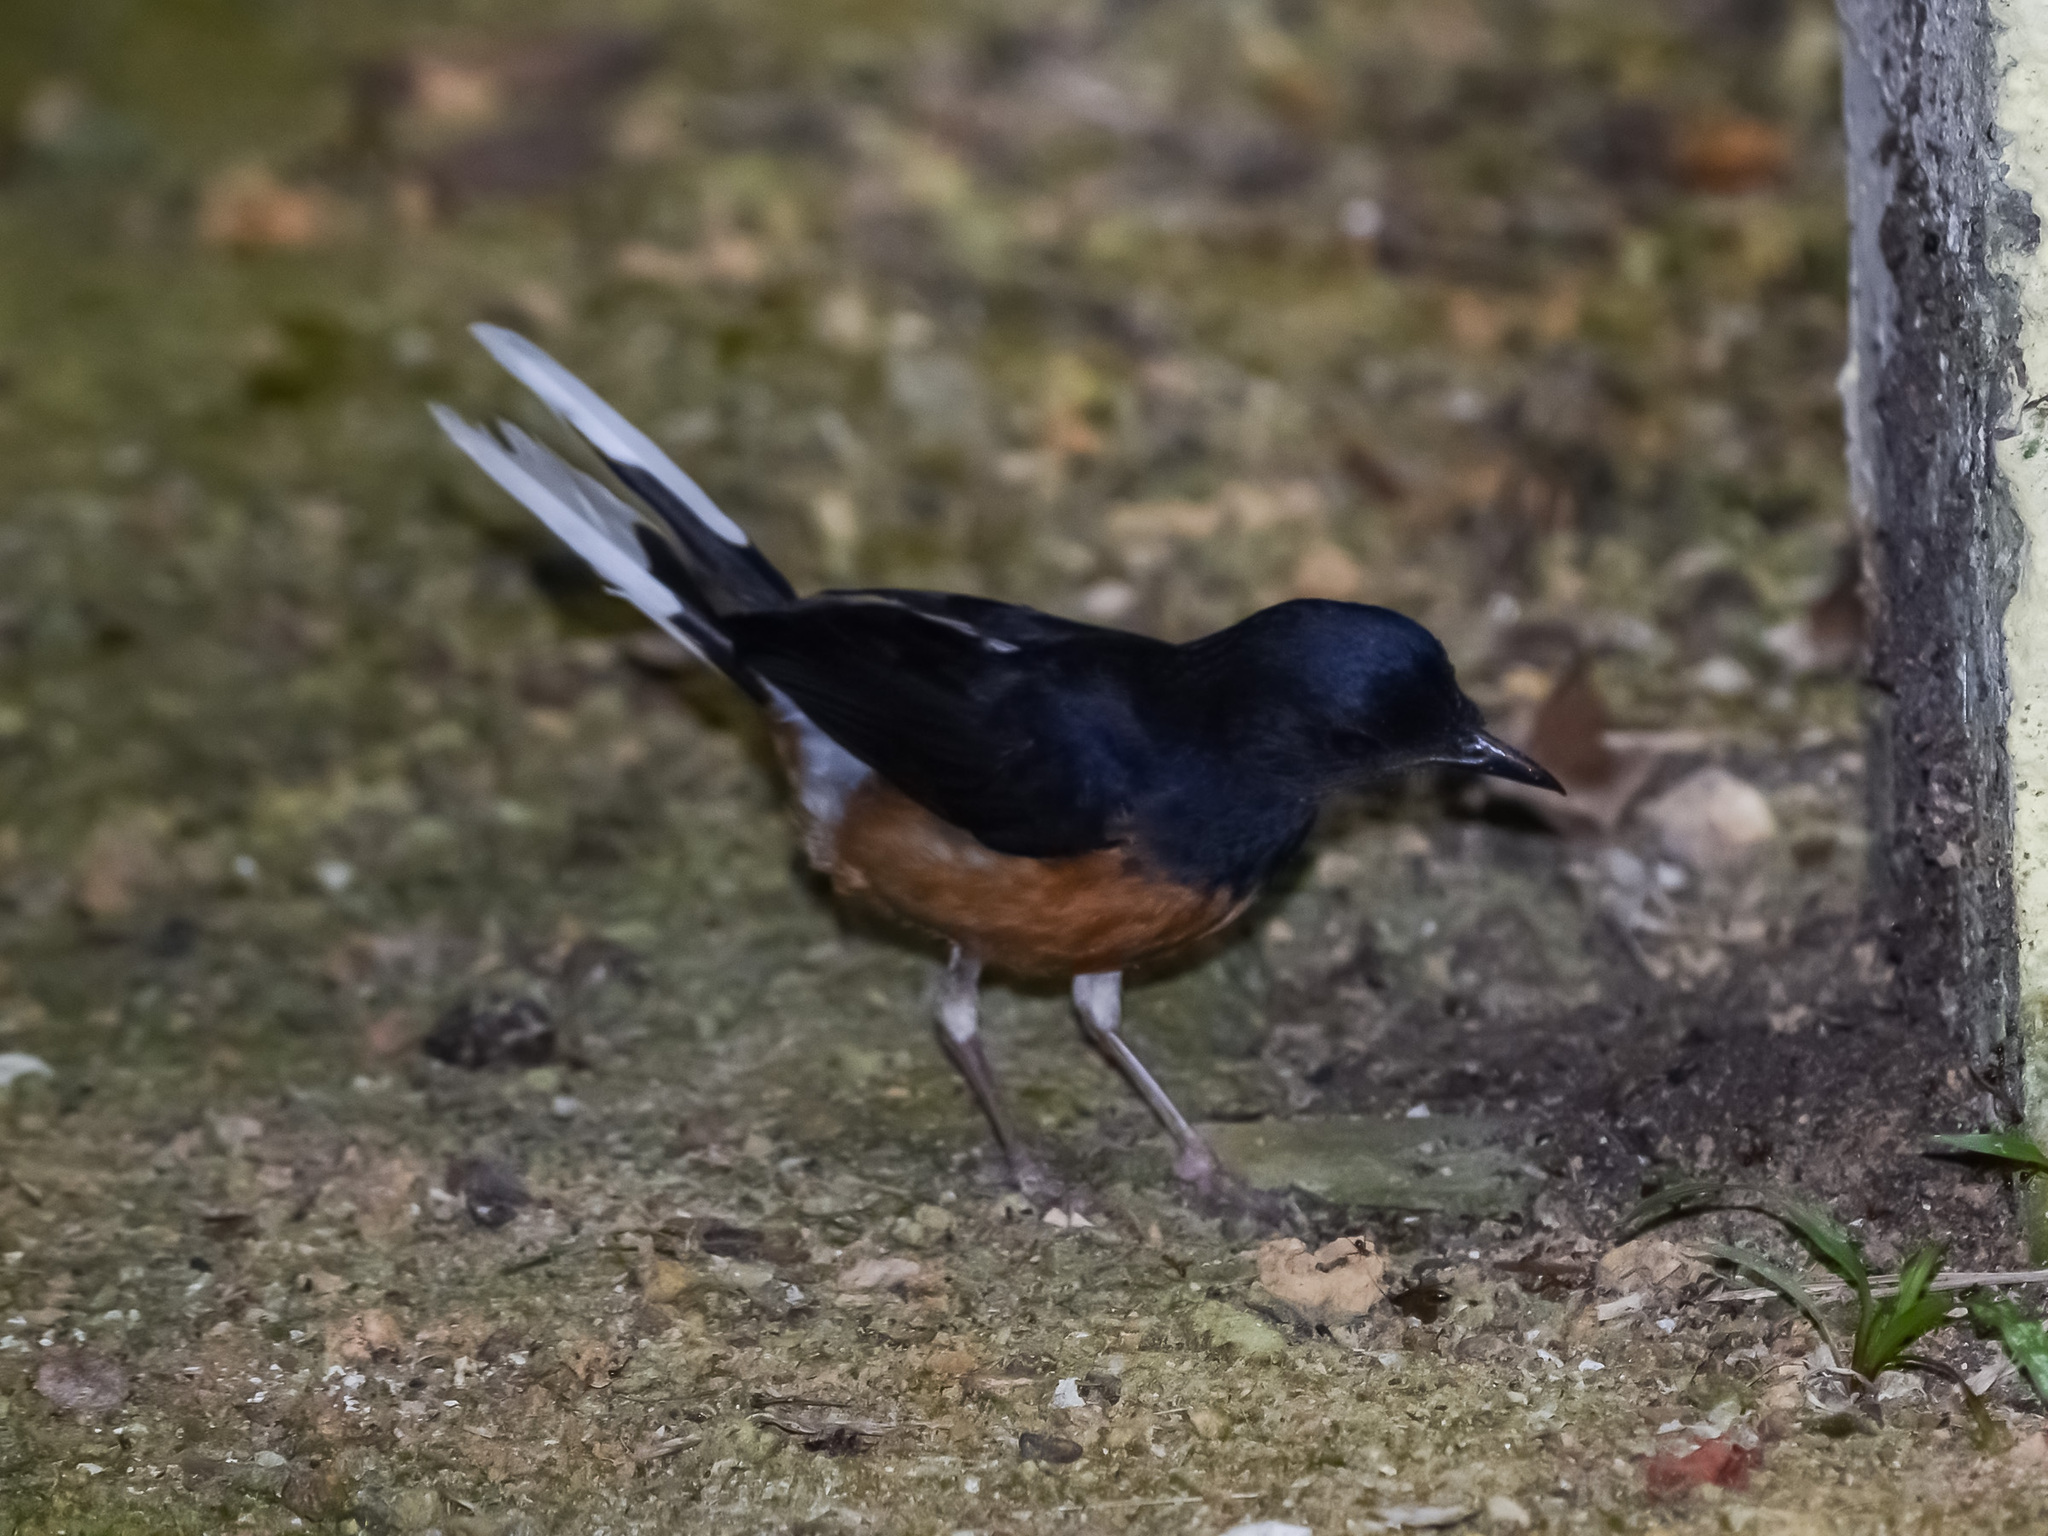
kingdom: Animalia
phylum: Chordata
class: Aves
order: Passeriformes
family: Muscicapidae
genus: Copsychus
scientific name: Copsychus malabaricus
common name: White-rumped shama
